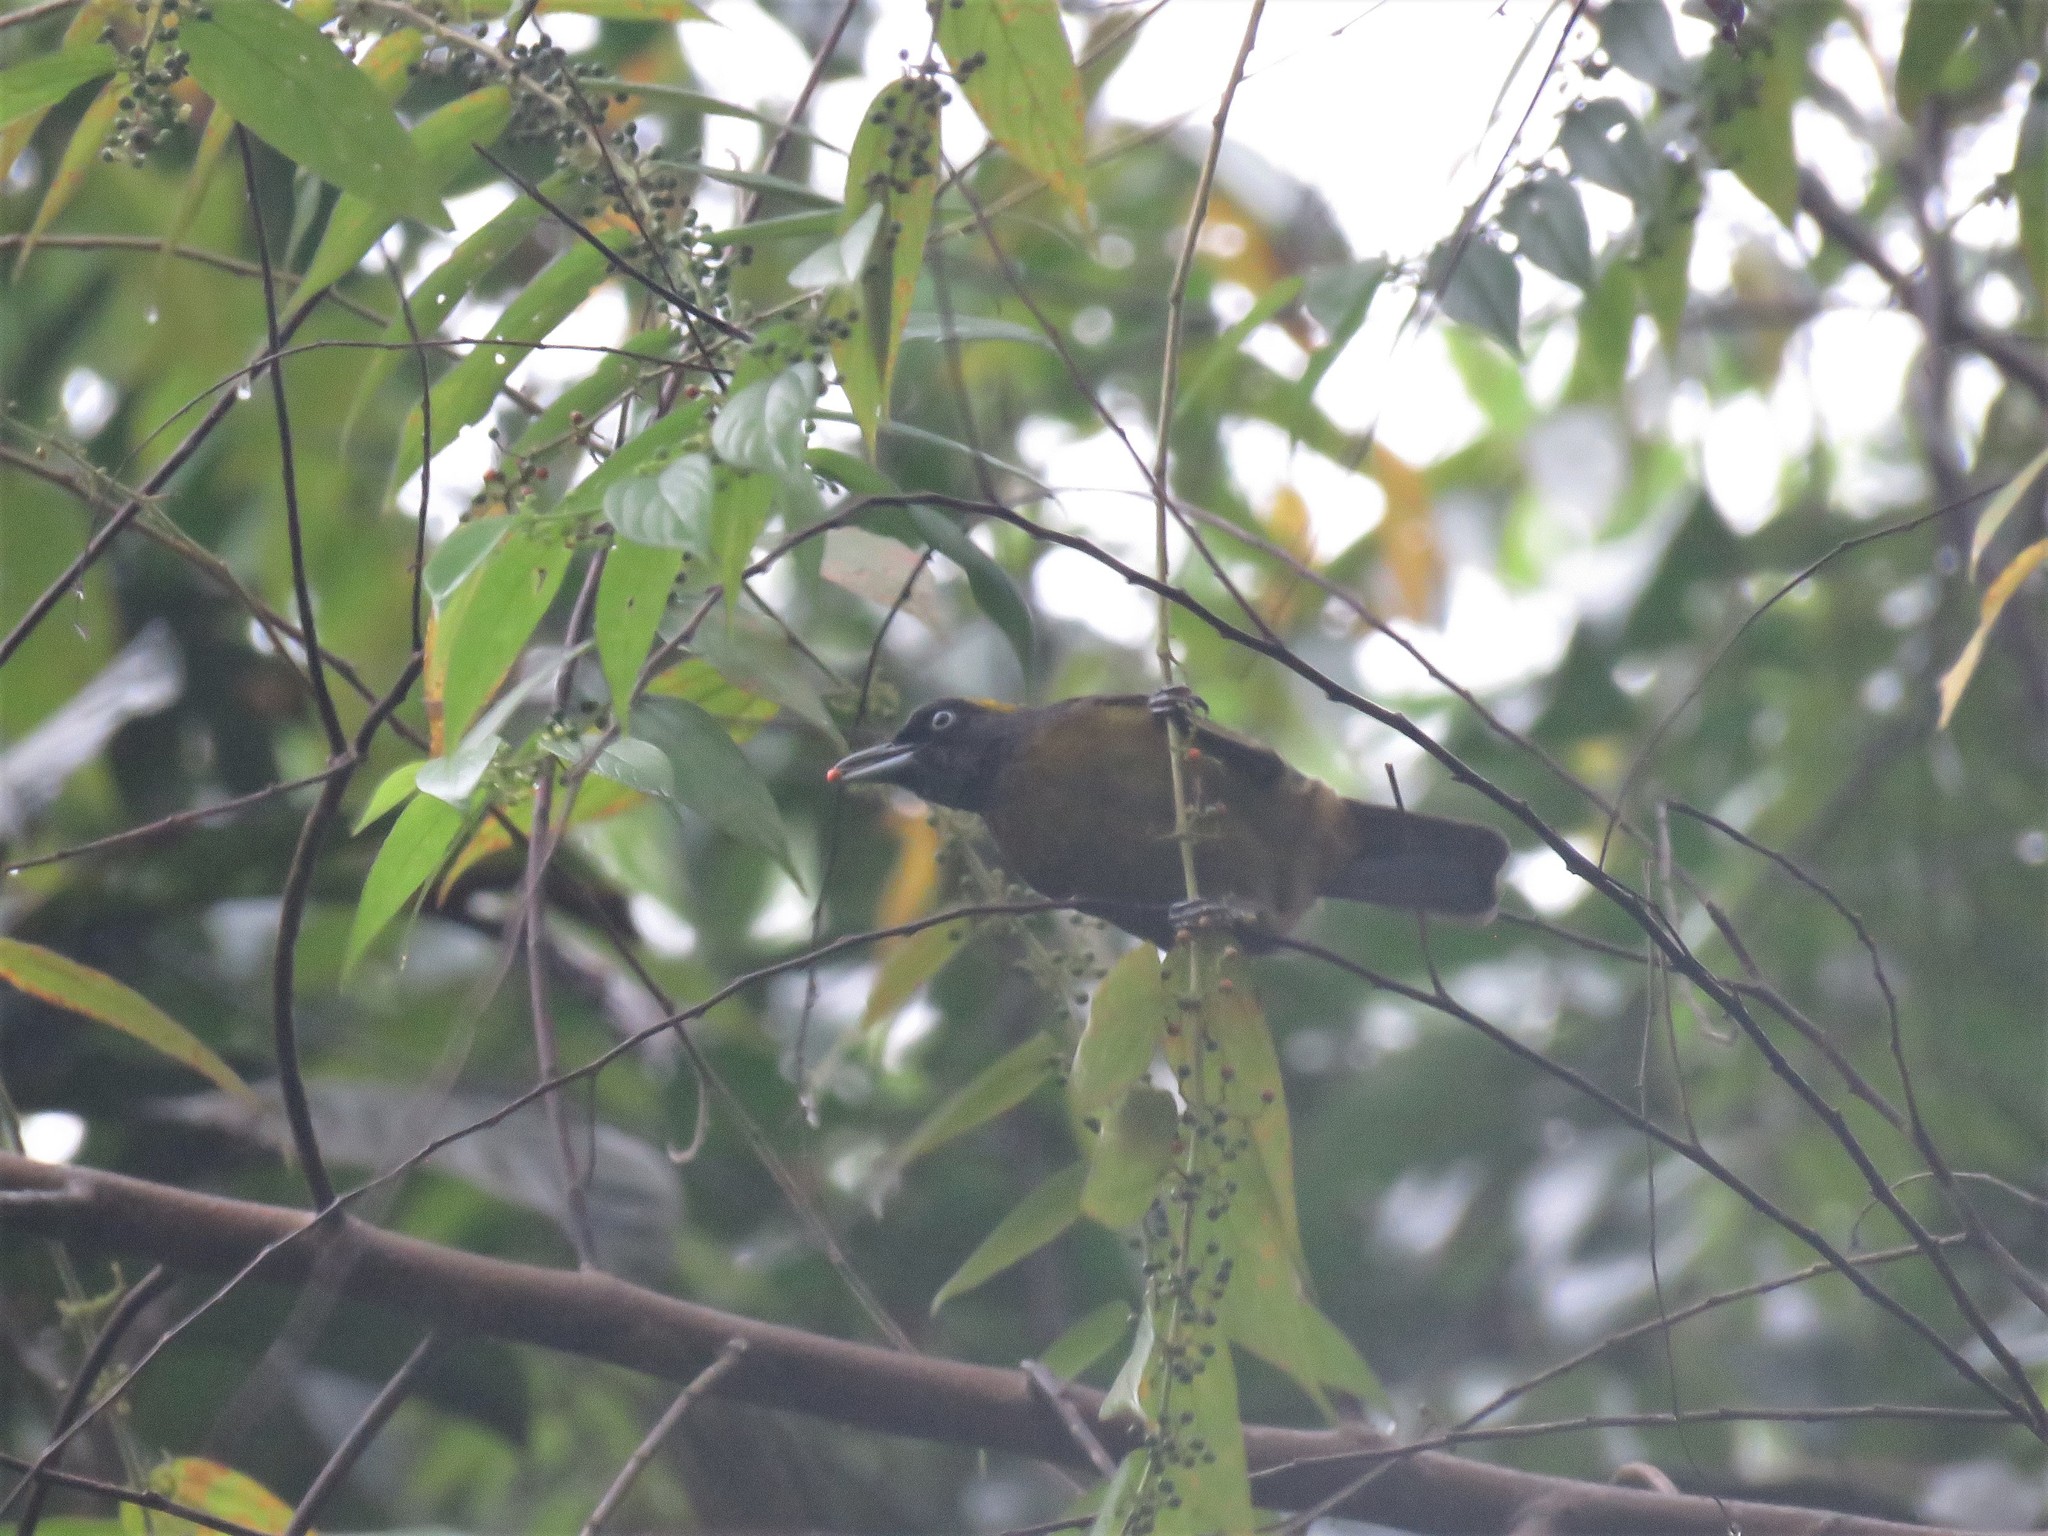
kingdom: Animalia
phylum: Chordata
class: Aves
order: Passeriformes
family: Mitrospingidae
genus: Mitrospingus
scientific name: Mitrospingus cassinii
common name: Dusky-faced tanager
